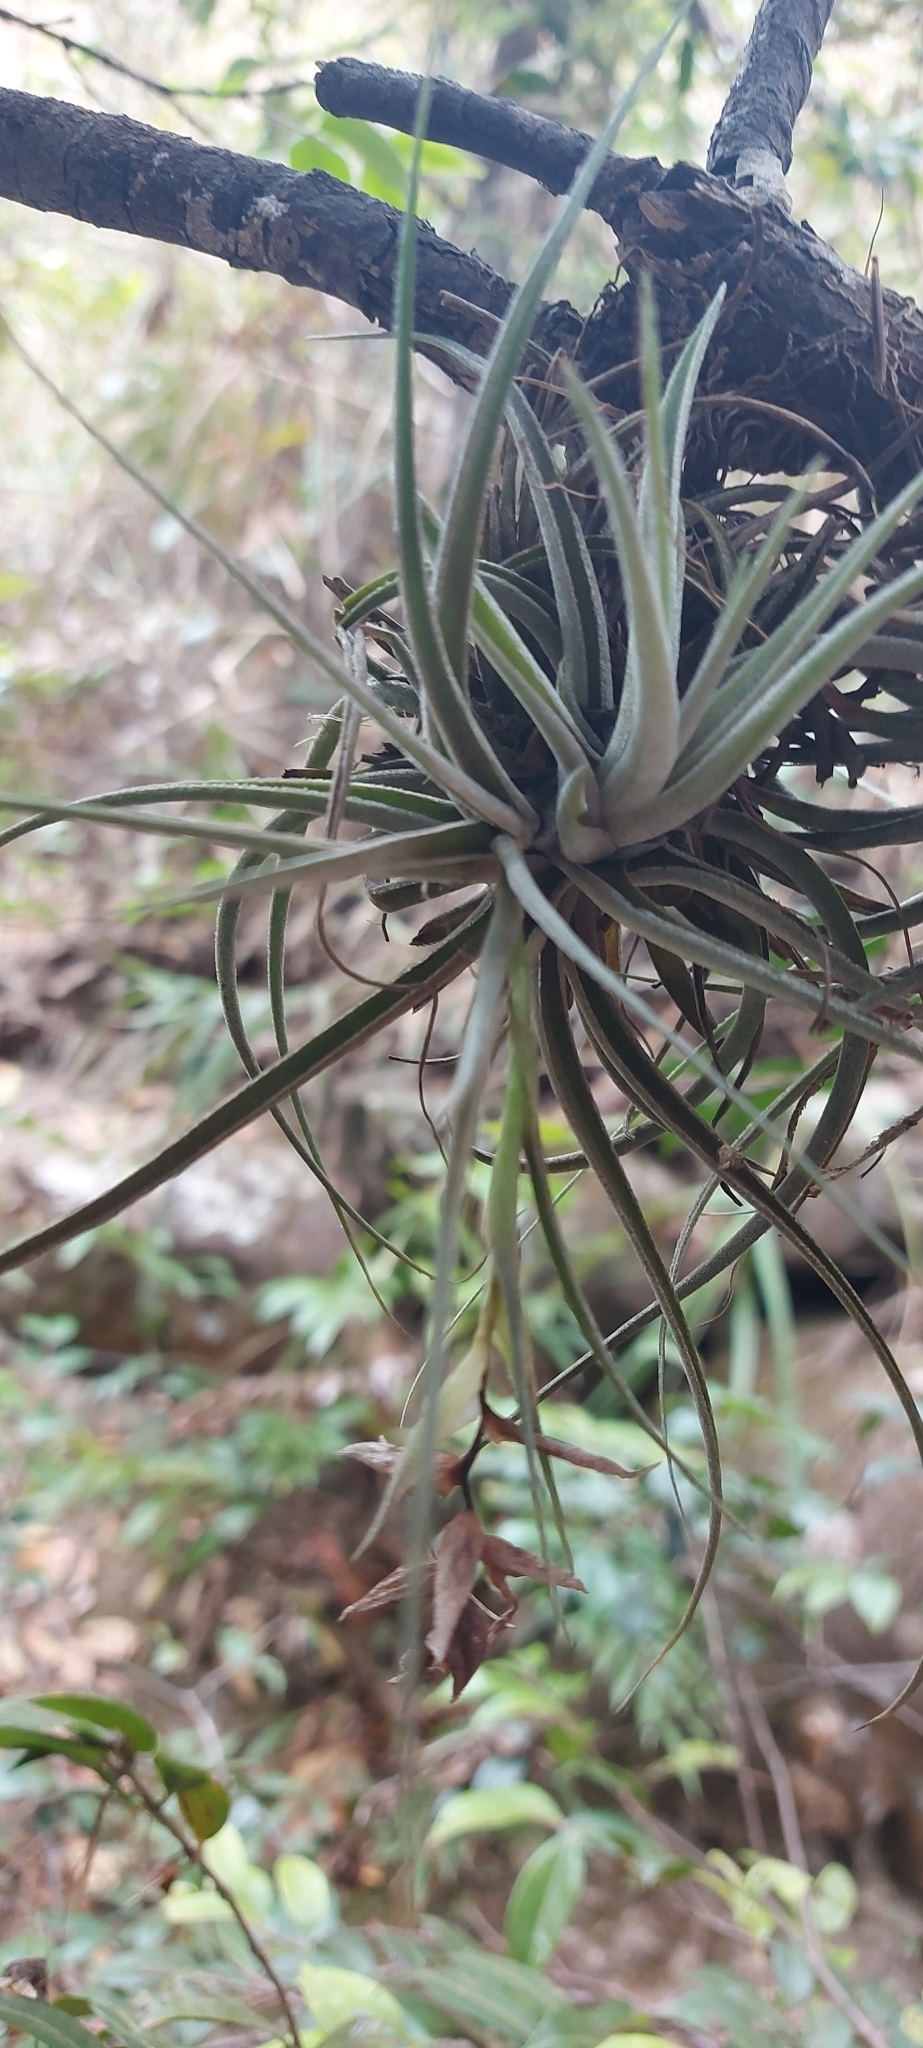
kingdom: Plantae
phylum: Tracheophyta
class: Liliopsida
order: Poales
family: Bromeliaceae
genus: Tillandsia
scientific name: Tillandsia stricta
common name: Airplant
